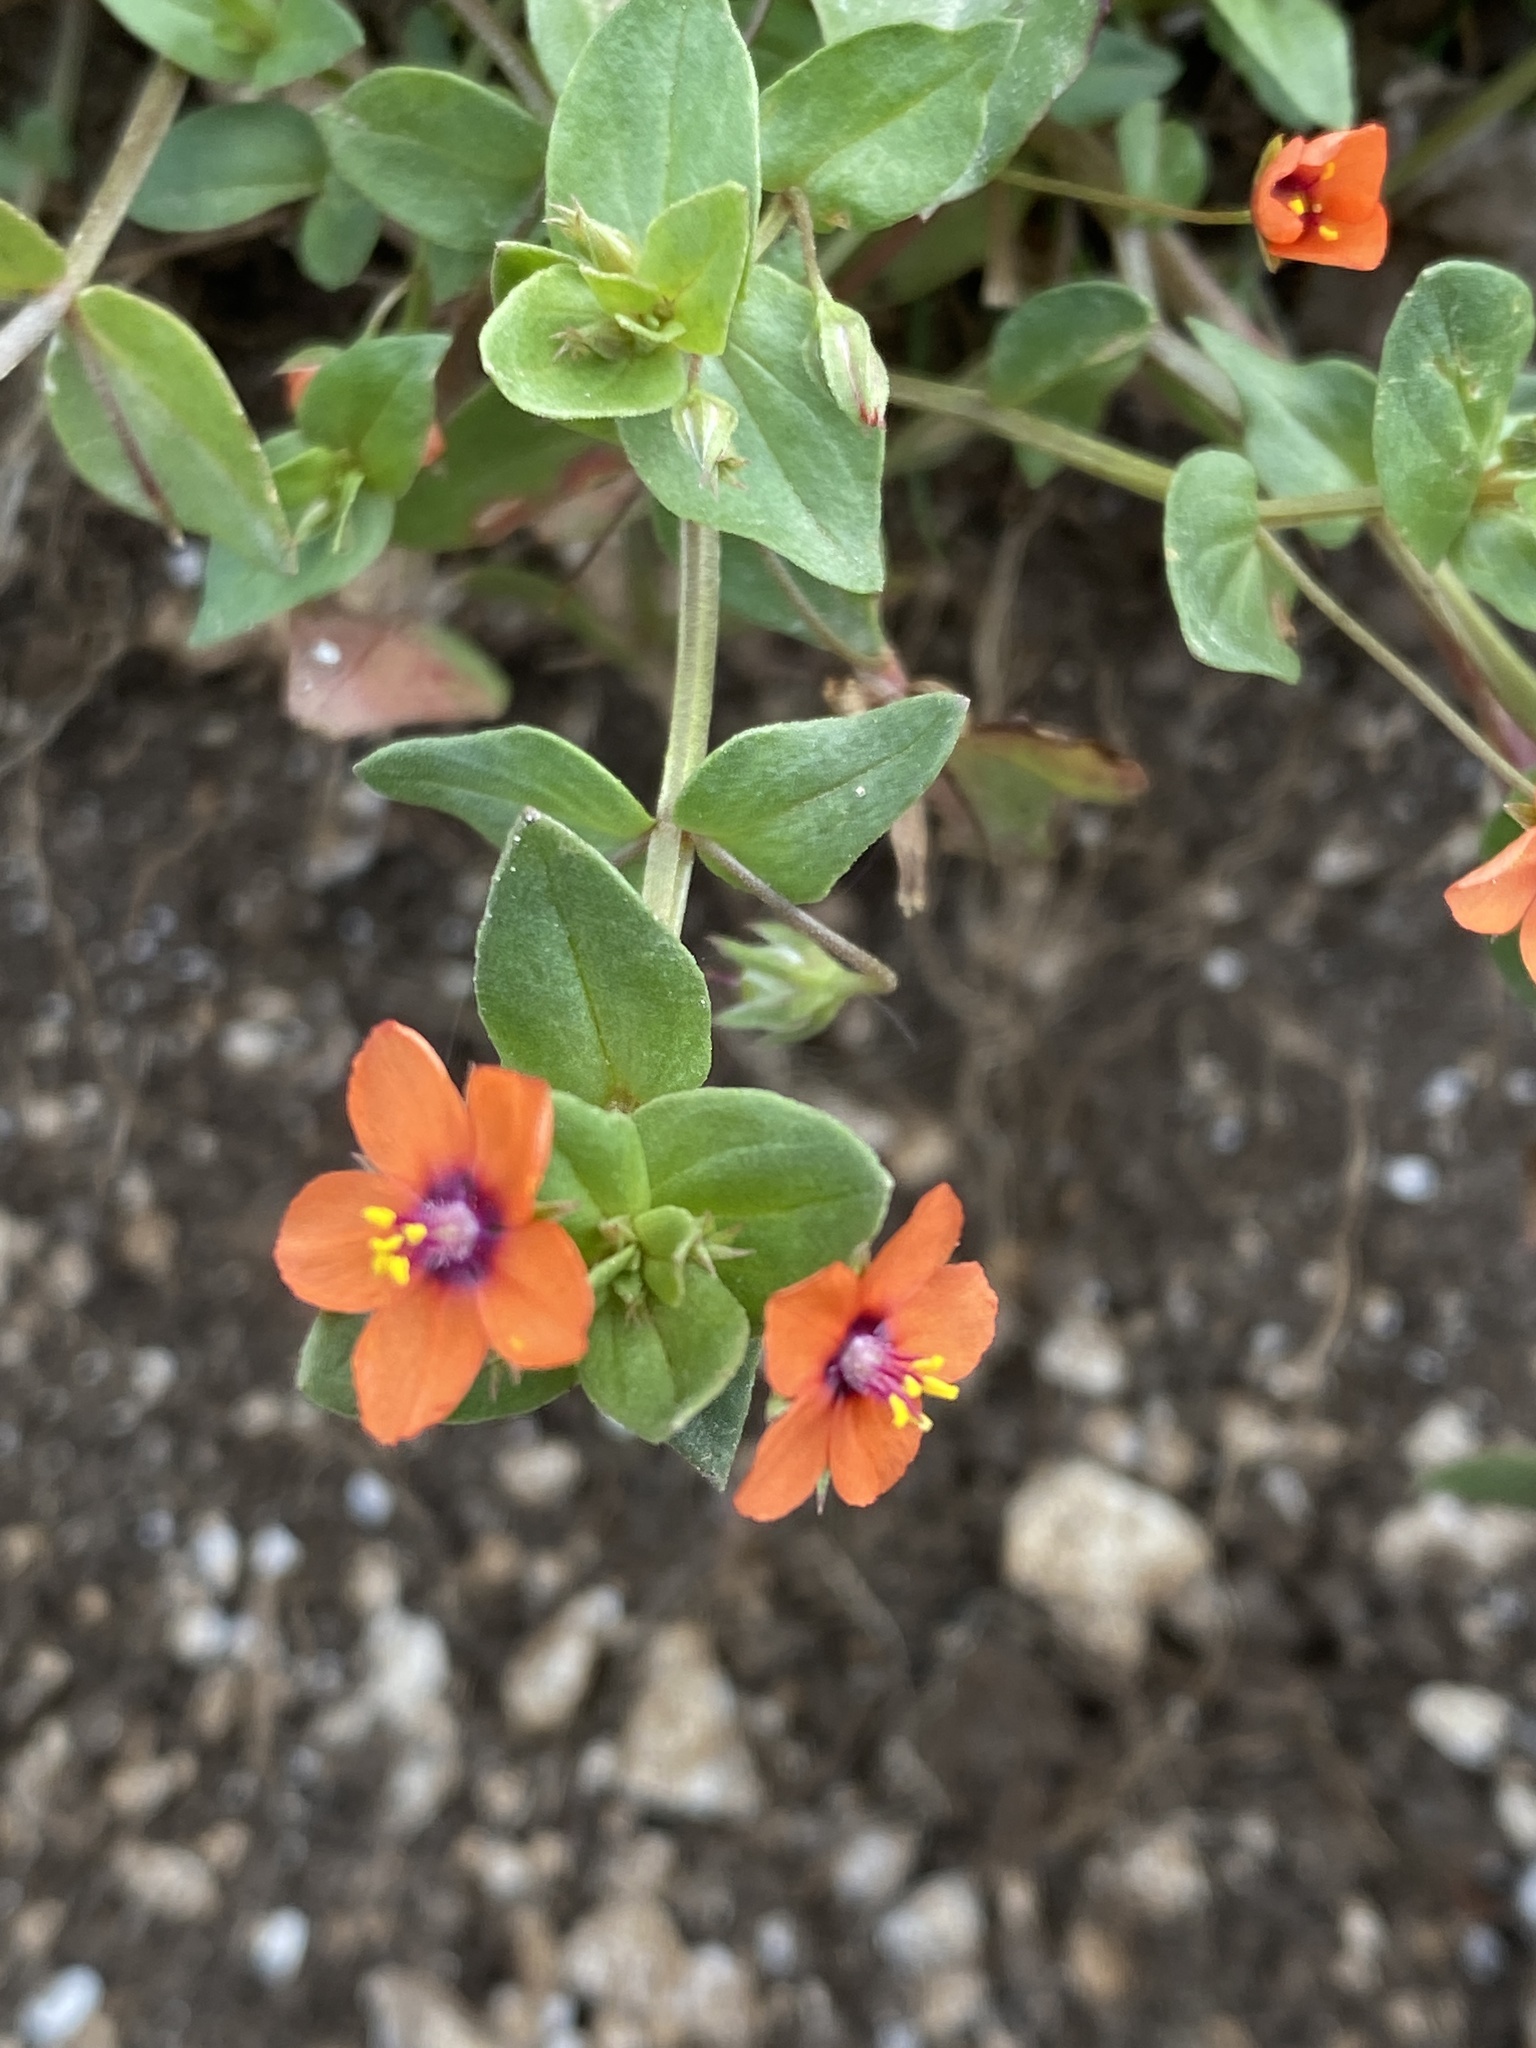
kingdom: Plantae
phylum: Tracheophyta
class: Magnoliopsida
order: Ericales
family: Primulaceae
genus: Lysimachia
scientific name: Lysimachia arvensis
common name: Scarlet pimpernel
